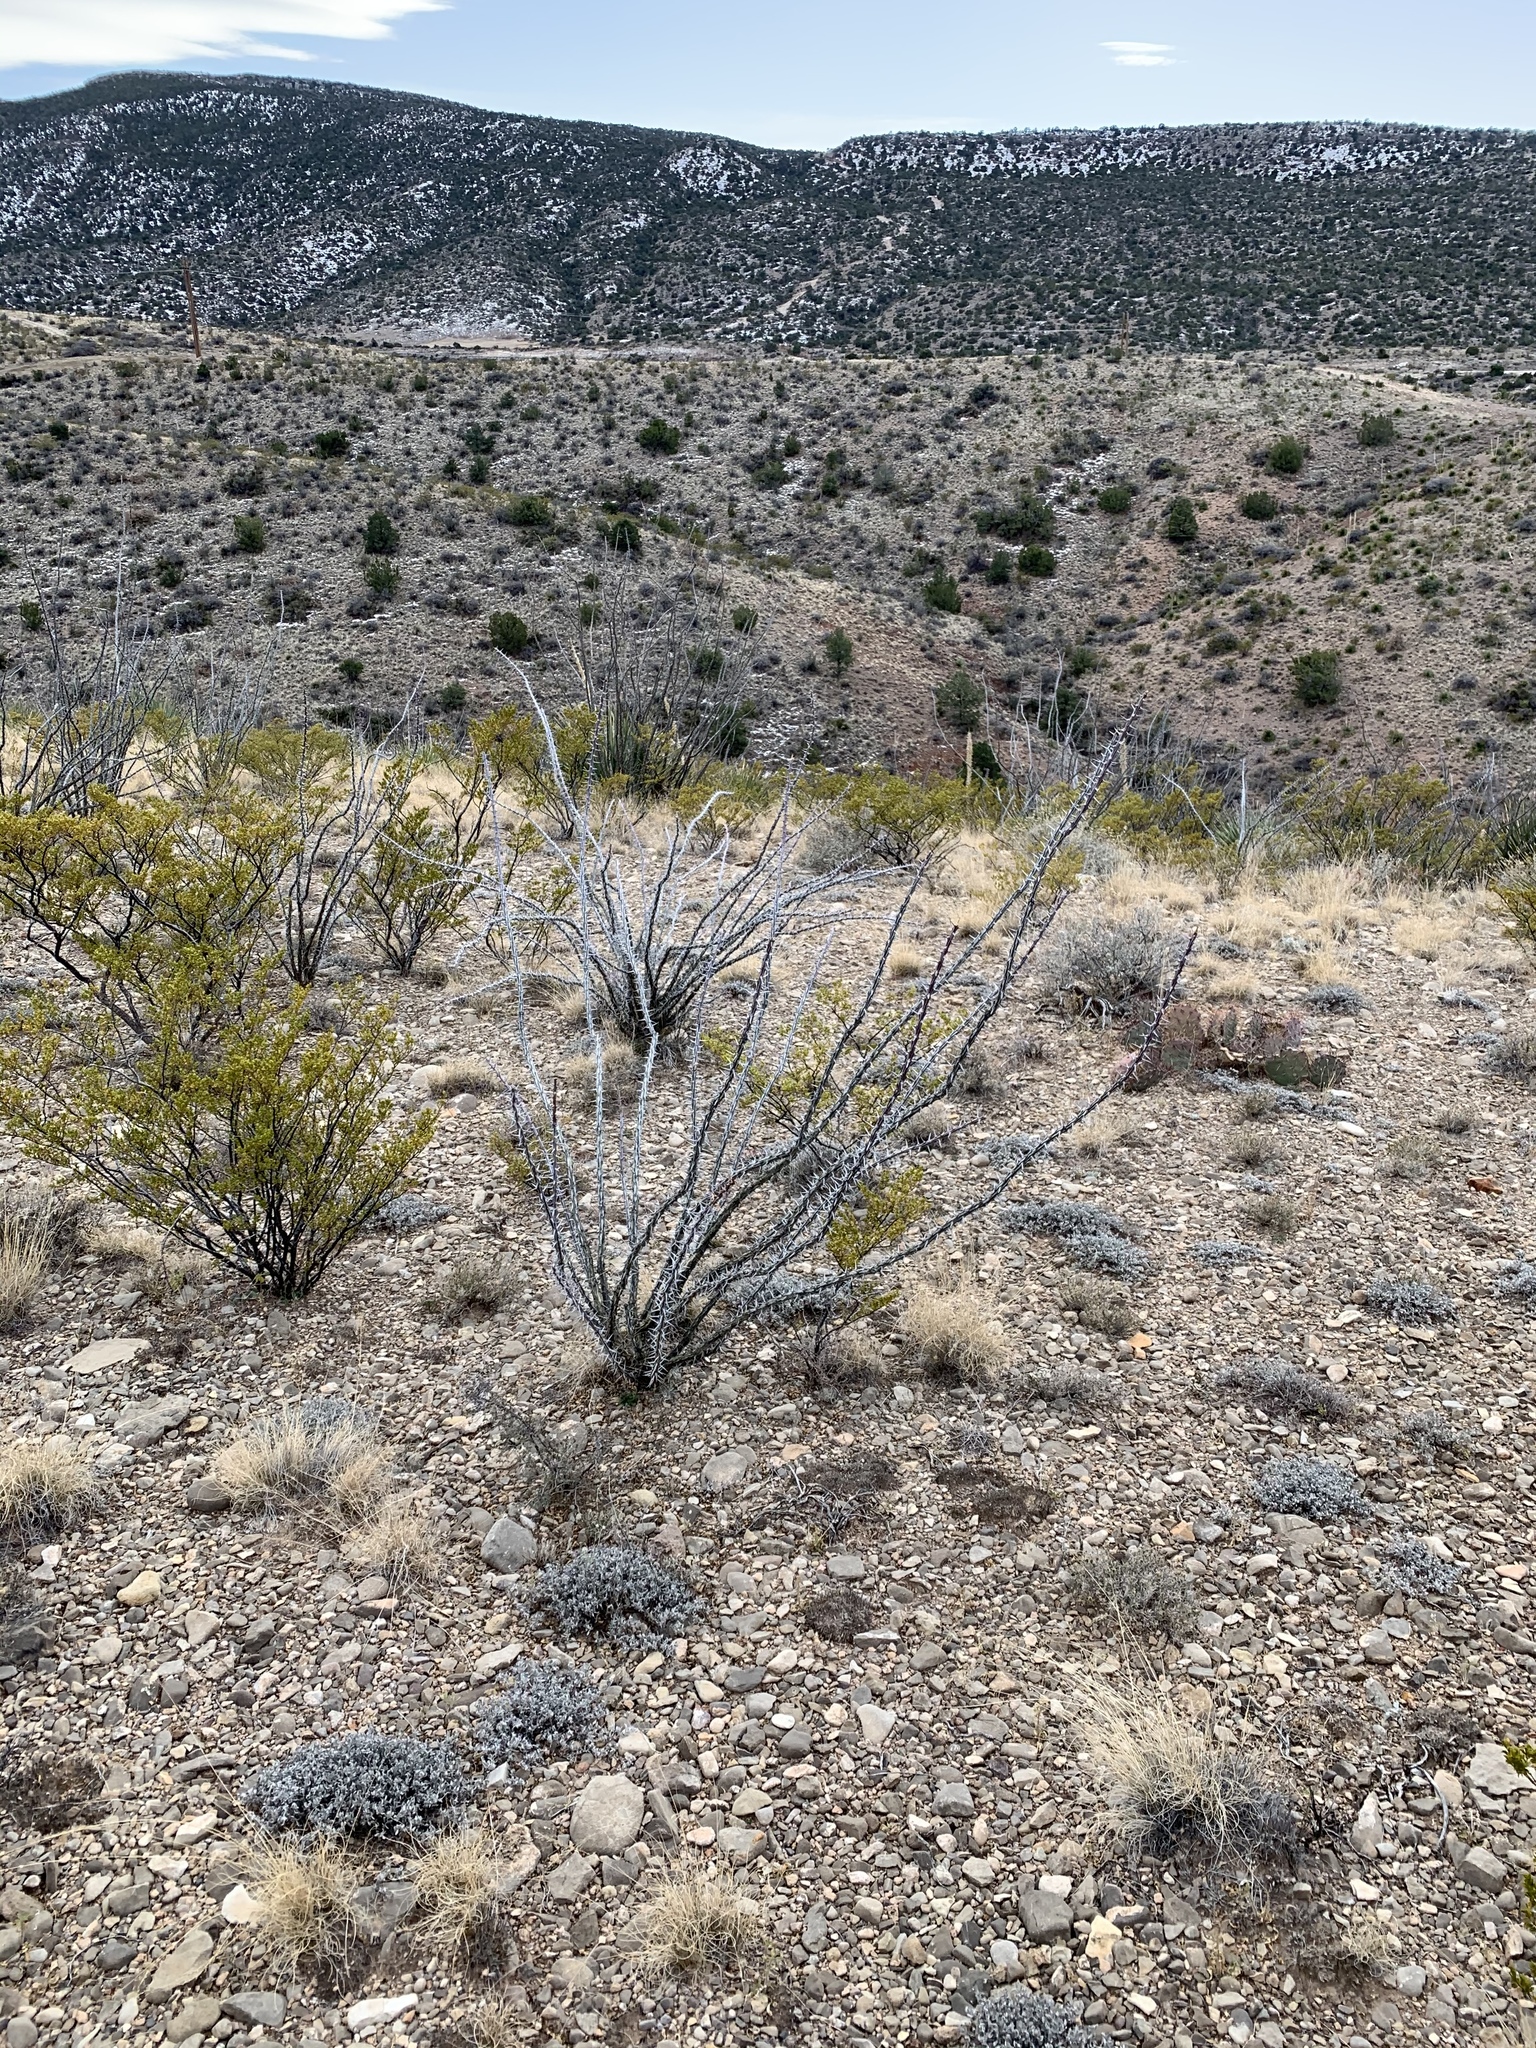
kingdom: Plantae
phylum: Tracheophyta
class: Magnoliopsida
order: Ericales
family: Fouquieriaceae
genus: Fouquieria
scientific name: Fouquieria splendens
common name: Vine-cactus
